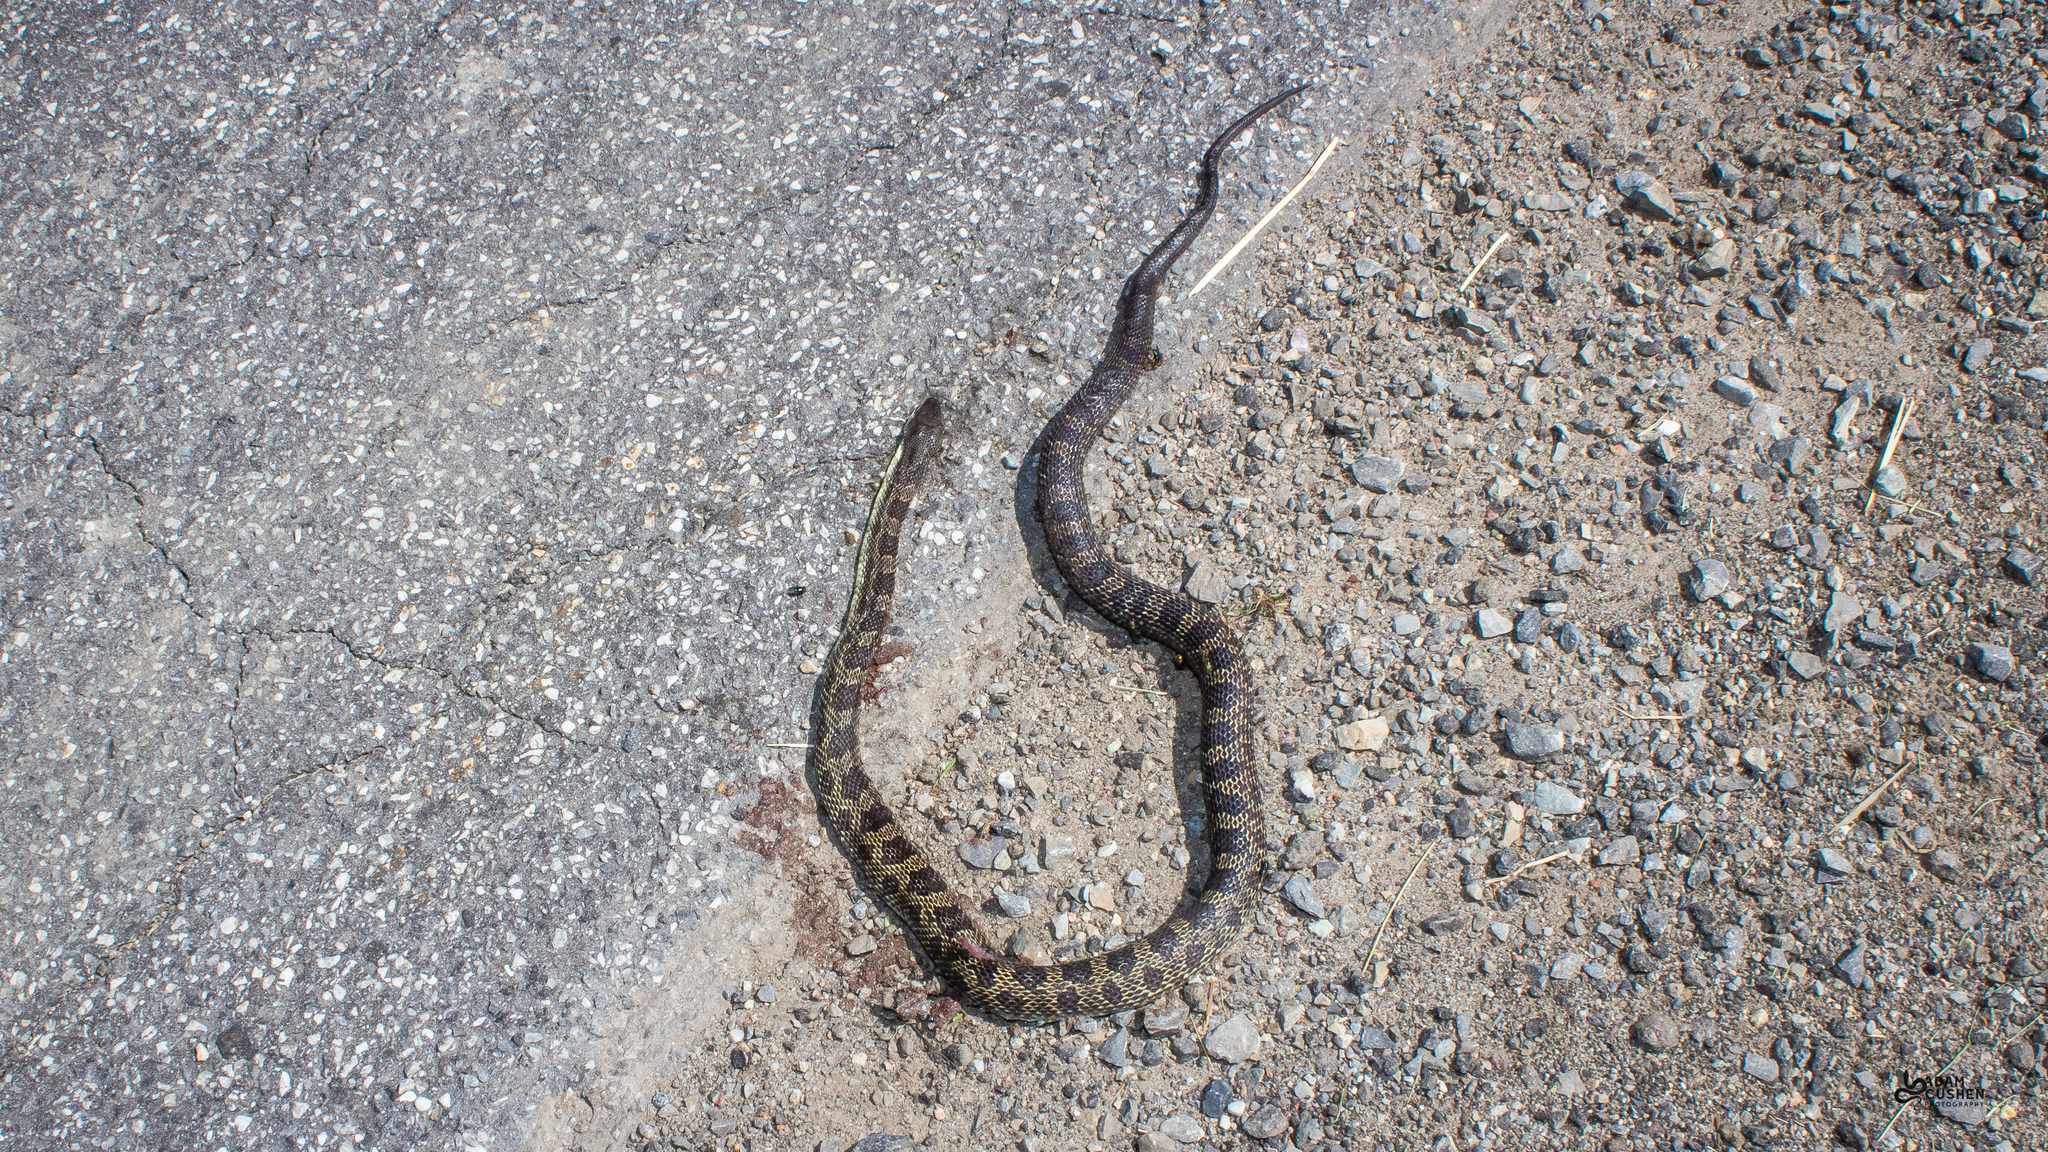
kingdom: Animalia
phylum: Chordata
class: Squamata
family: Colubridae
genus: Pantherophis
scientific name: Pantherophis spiloides
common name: Gray rat snake
